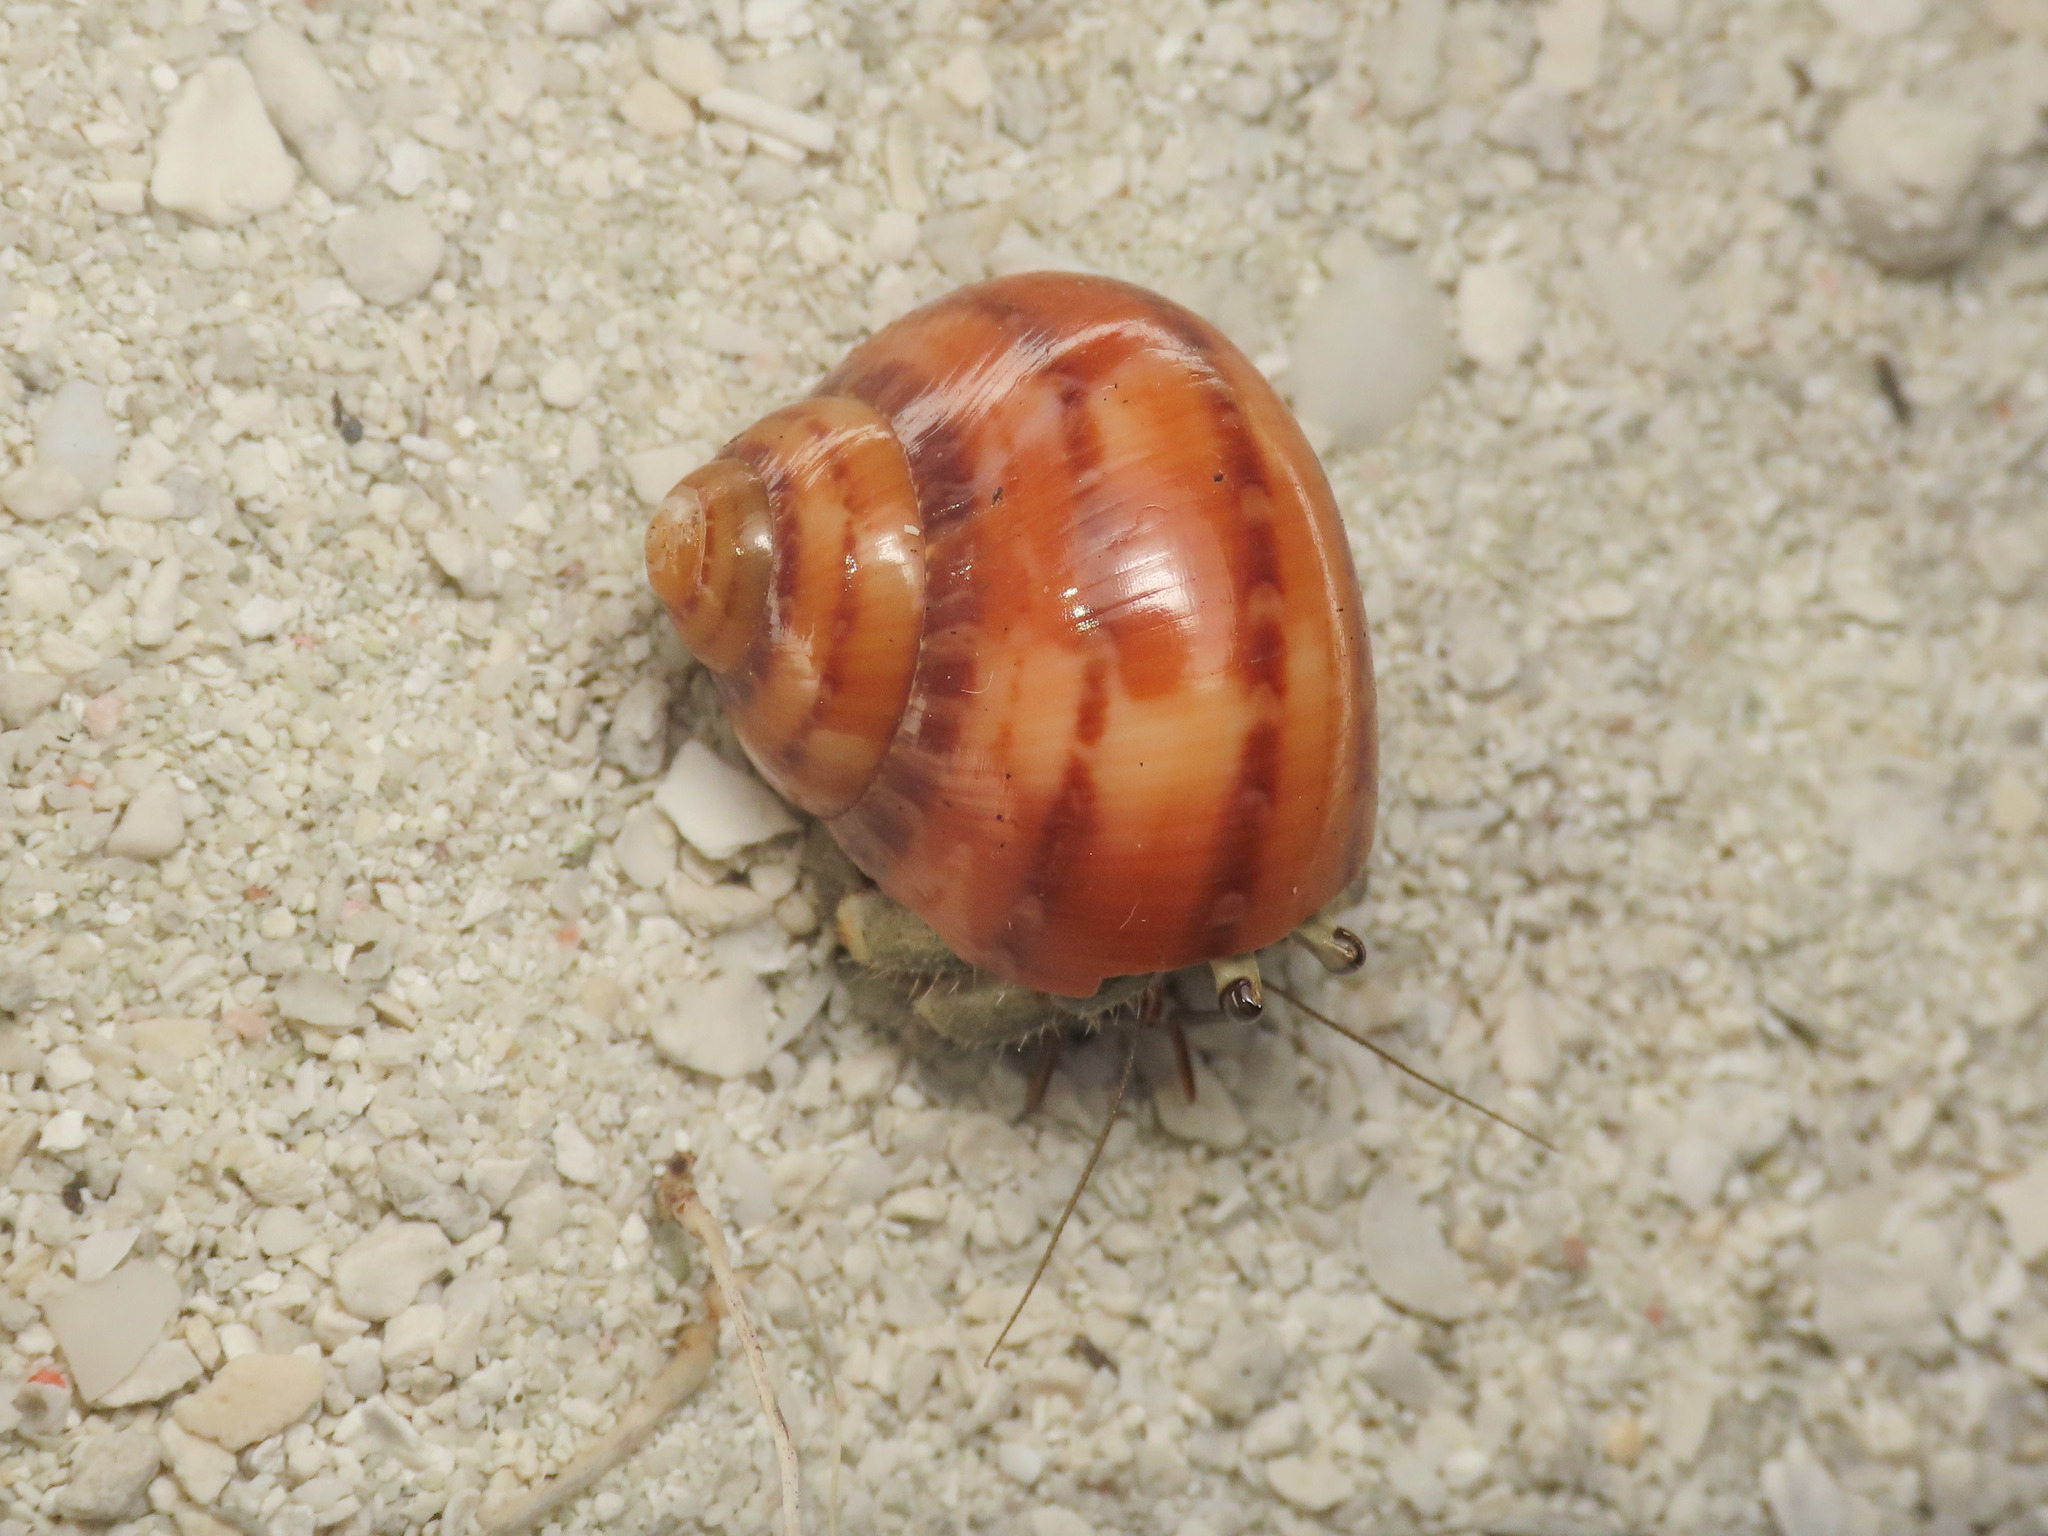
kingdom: Animalia
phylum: Mollusca
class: Gastropoda
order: Trochida
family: Turbinidae
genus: Turbo
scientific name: Turbo petholatus
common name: Cat's-eye shell
